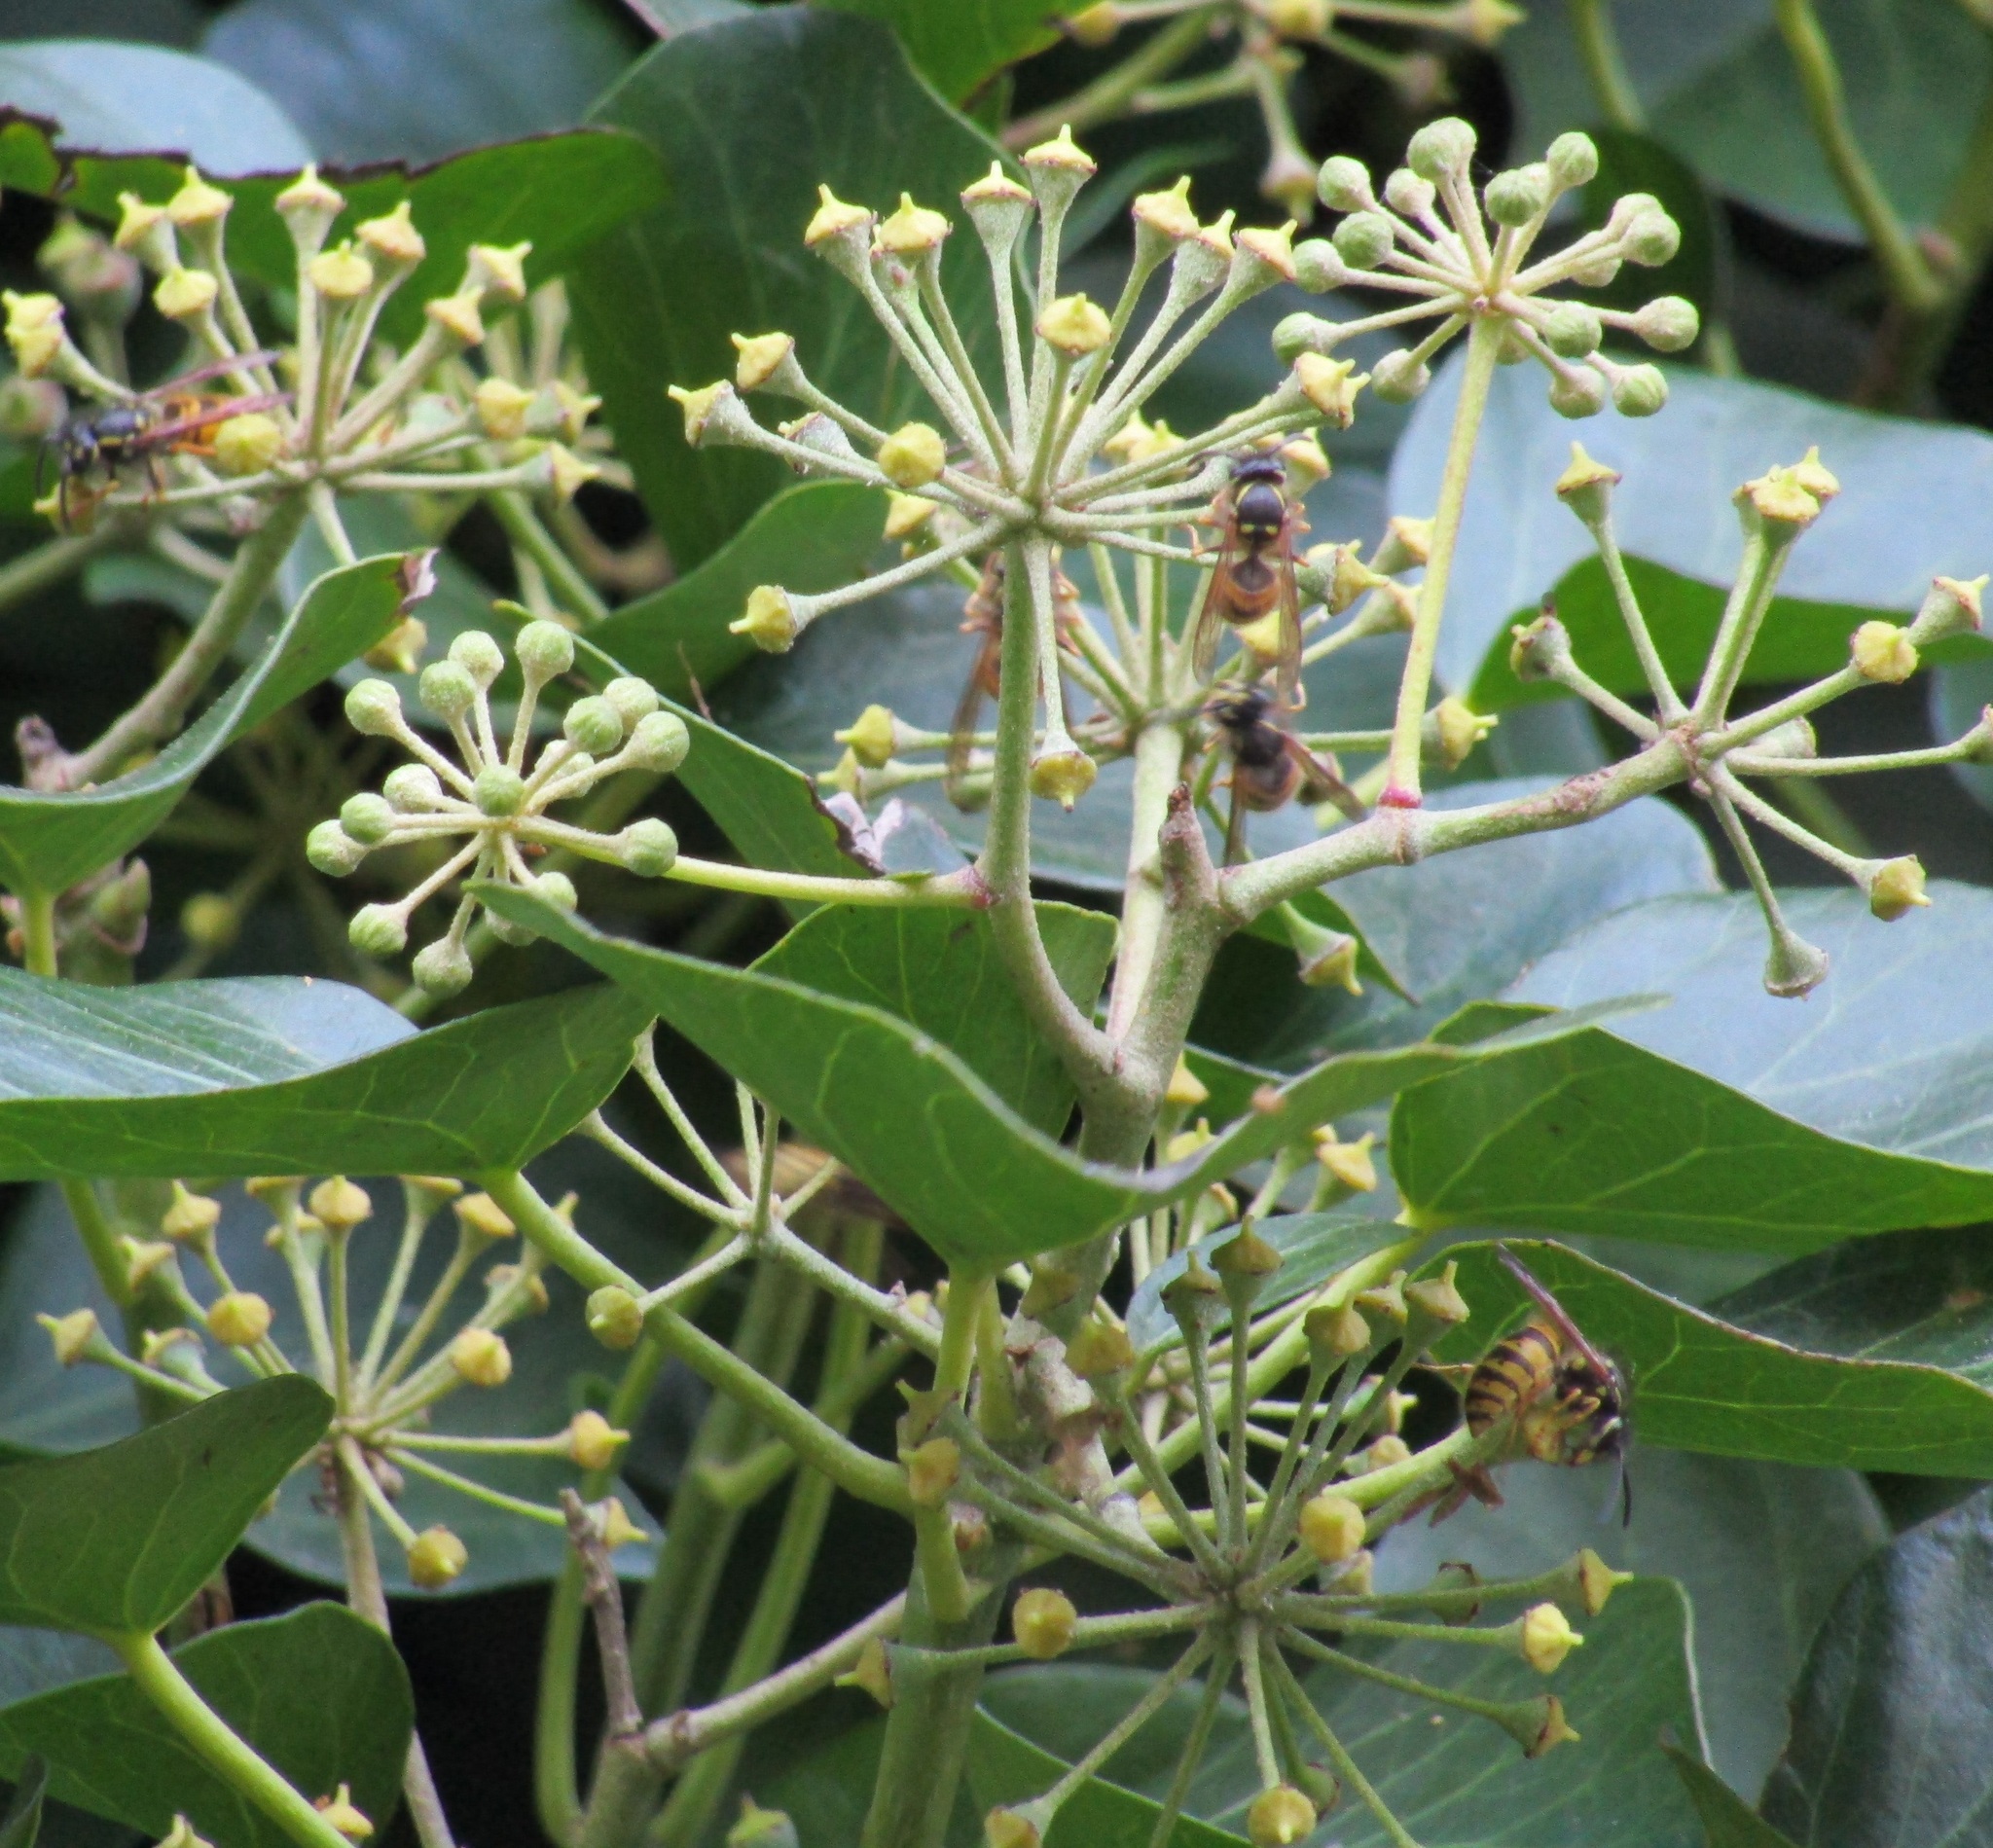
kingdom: Plantae
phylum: Tracheophyta
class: Magnoliopsida
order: Apiales
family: Araliaceae
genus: Hedera
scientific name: Hedera helix
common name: Ivy
